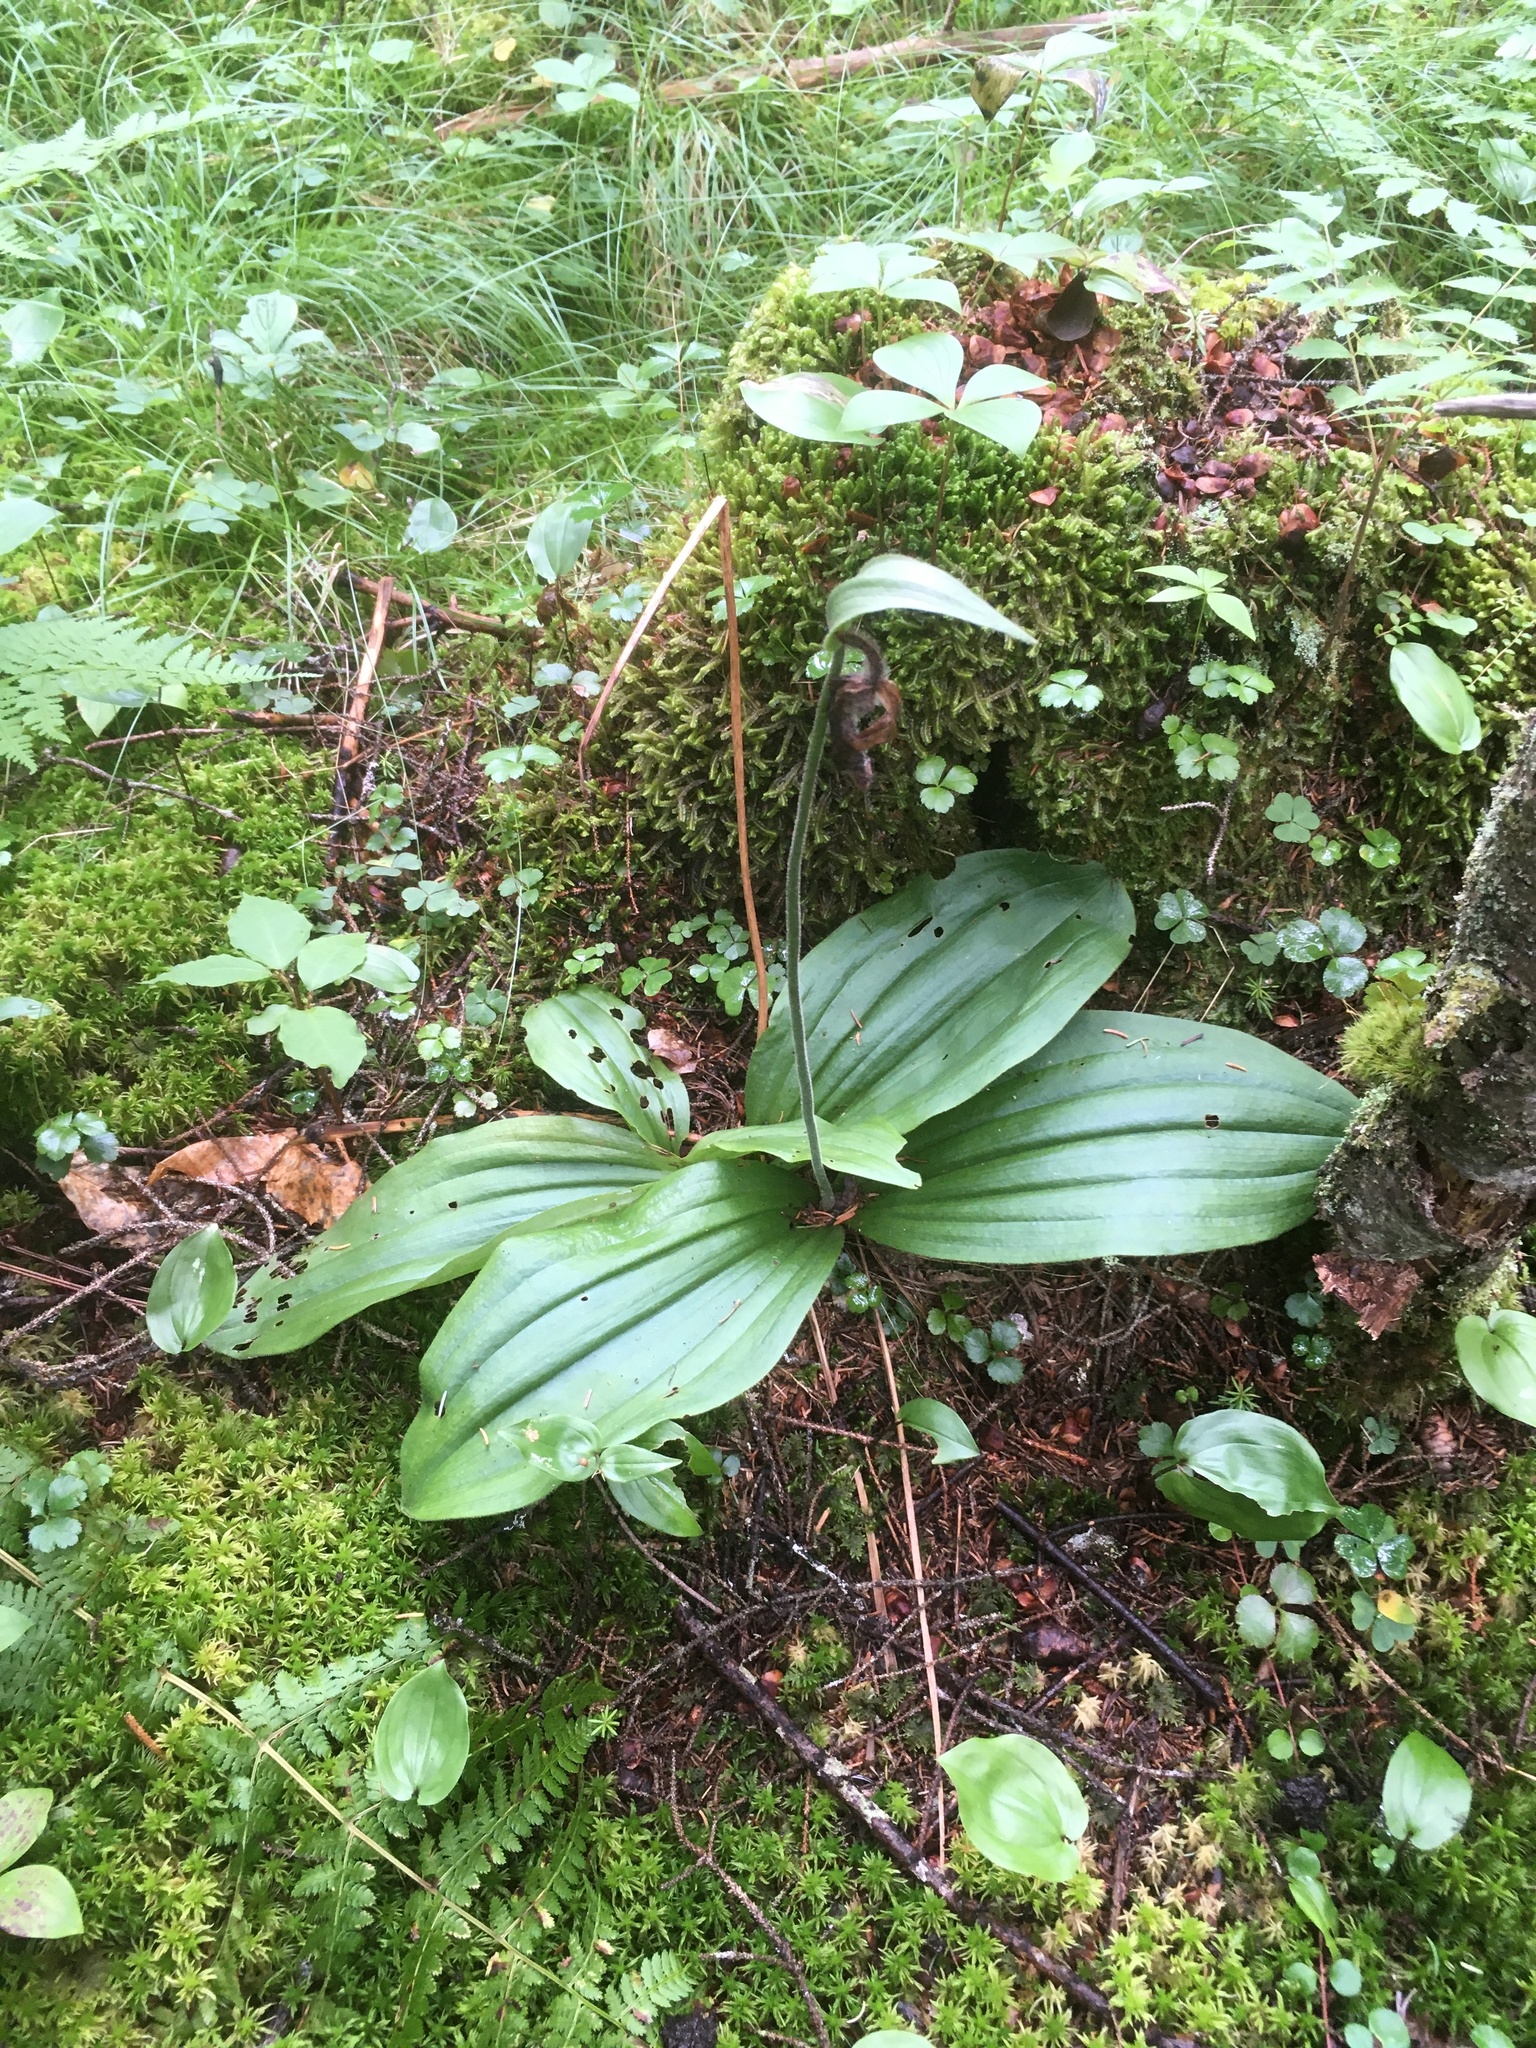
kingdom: Plantae
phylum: Tracheophyta
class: Liliopsida
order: Asparagales
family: Orchidaceae
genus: Cypripedium
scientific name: Cypripedium acaule
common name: Pink lady's-slipper
